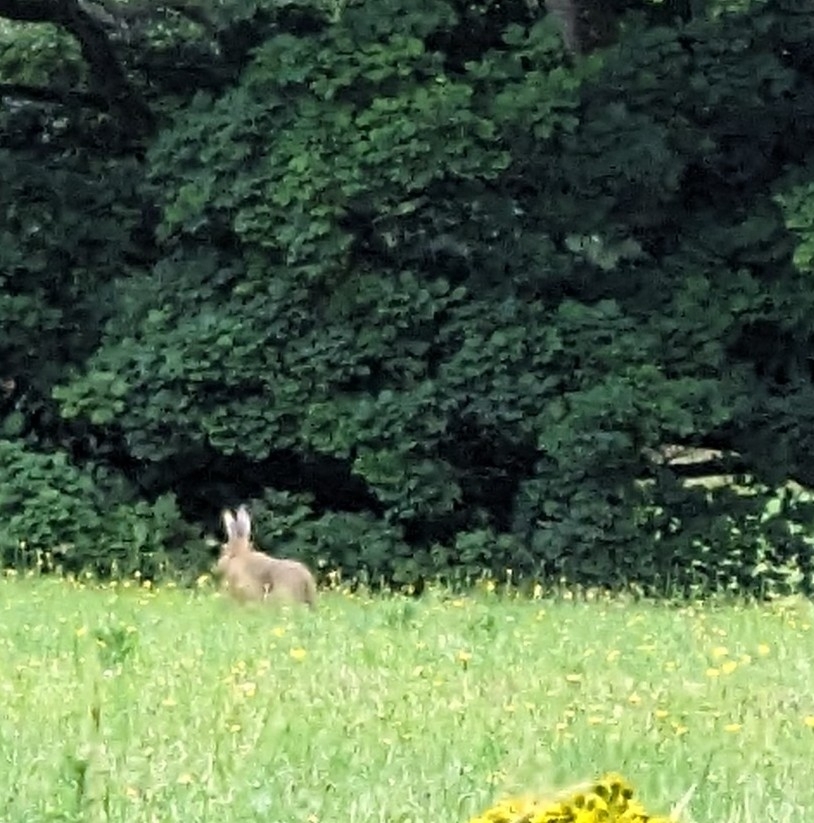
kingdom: Animalia
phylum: Chordata
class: Mammalia
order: Lagomorpha
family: Leporidae
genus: Lepus
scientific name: Lepus europaeus
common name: European hare
